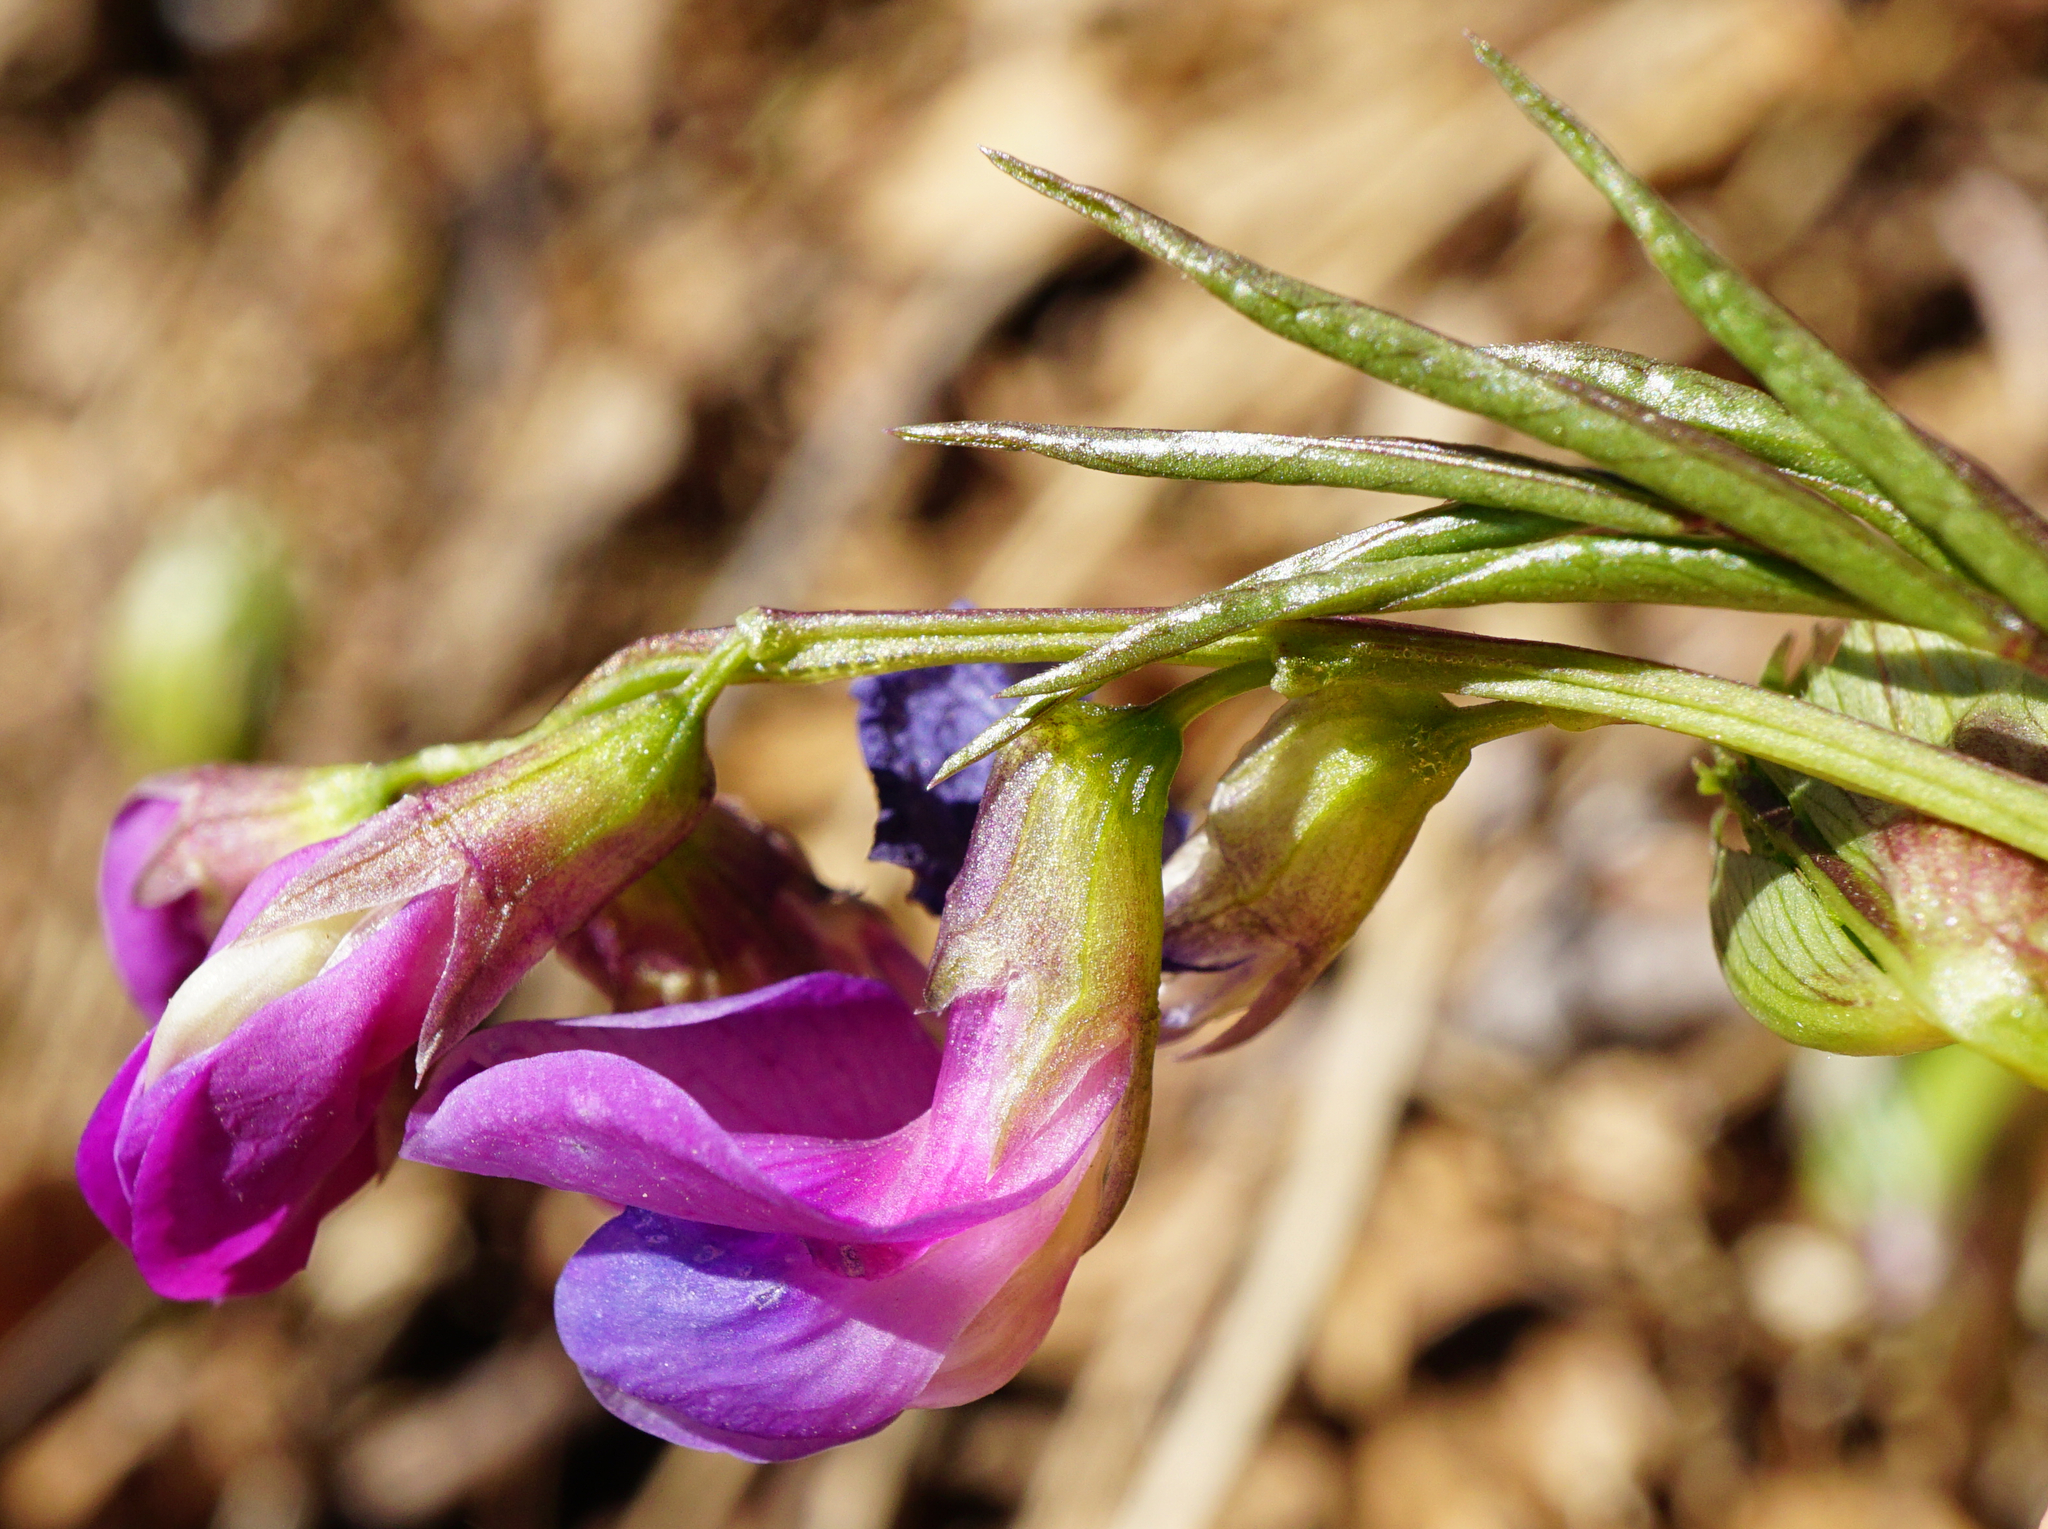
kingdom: Plantae
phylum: Tracheophyta
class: Magnoliopsida
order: Fabales
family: Fabaceae
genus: Lathyrus
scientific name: Lathyrus vernus
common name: Spring pea
